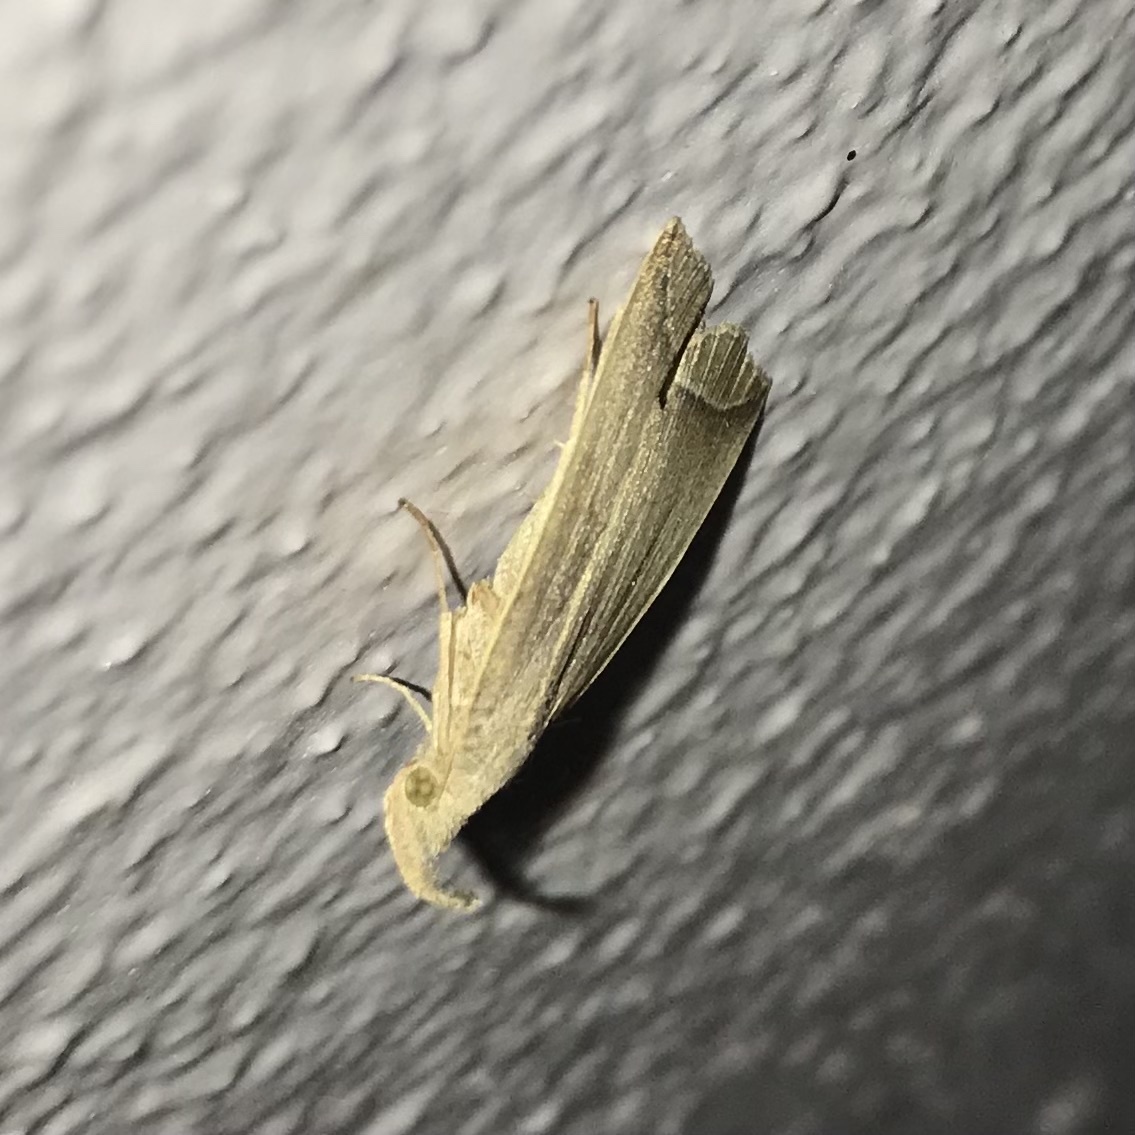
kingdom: Animalia
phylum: Arthropoda
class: Insecta
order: Lepidoptera
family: Erebidae
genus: Simplicia
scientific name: Simplicia armatalis
